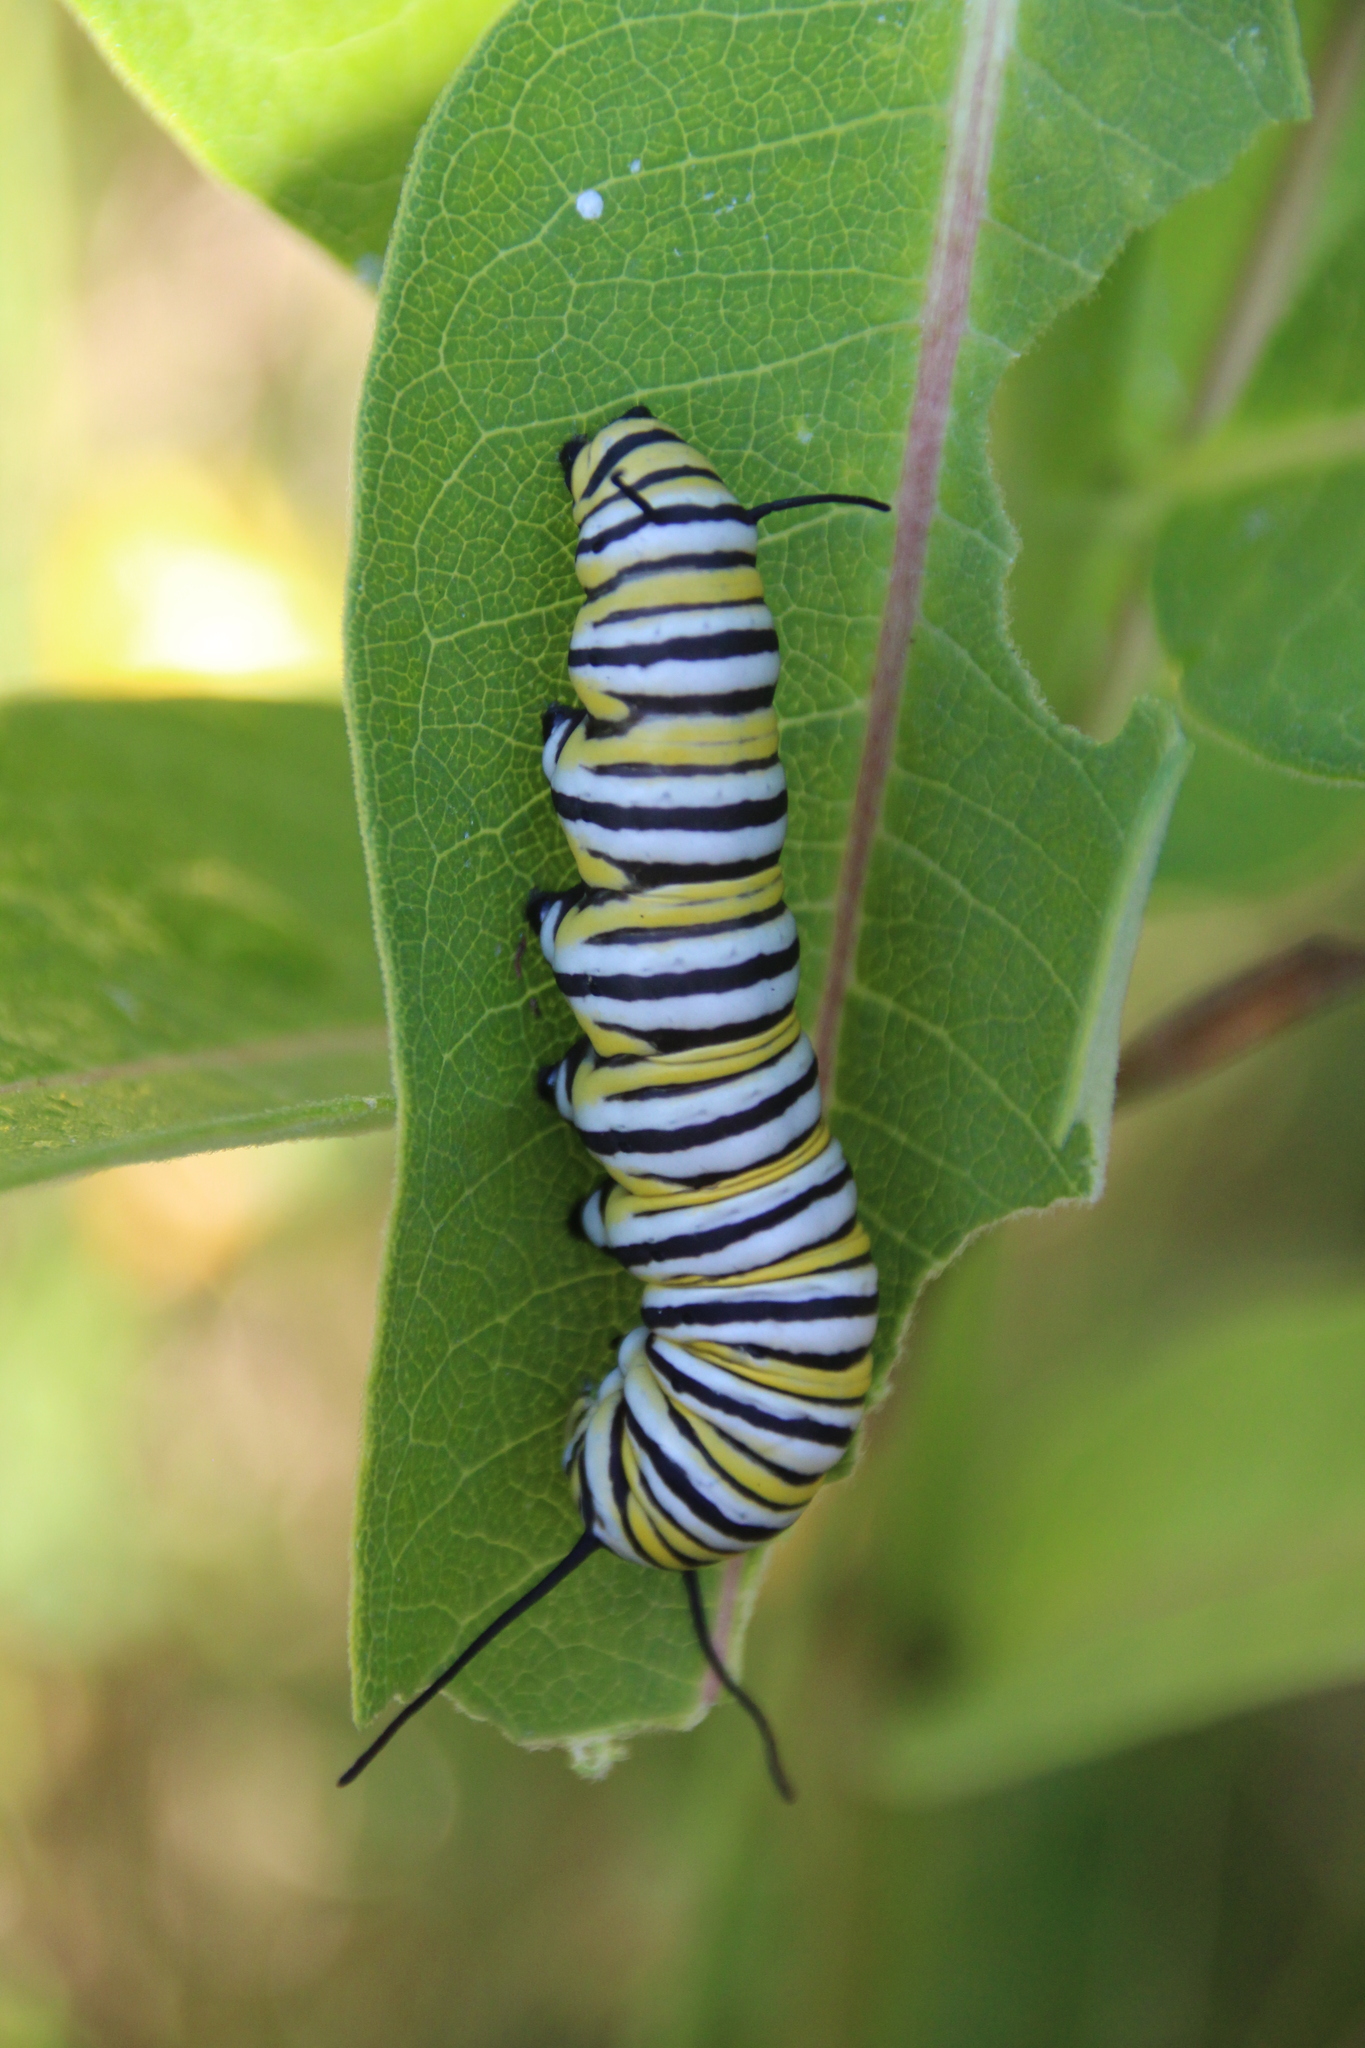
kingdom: Animalia
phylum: Arthropoda
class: Insecta
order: Lepidoptera
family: Nymphalidae
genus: Danaus
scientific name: Danaus plexippus
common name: Monarch
